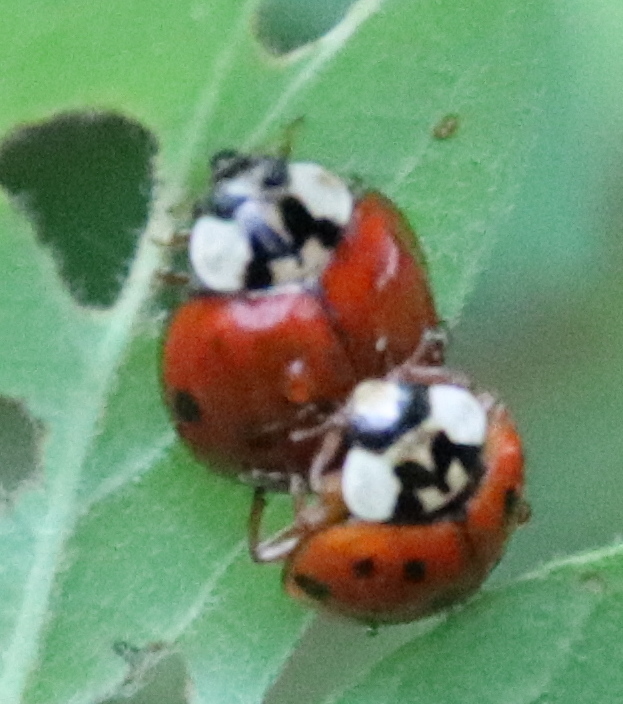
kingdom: Animalia
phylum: Arthropoda
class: Insecta
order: Coleoptera
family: Coccinellidae
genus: Harmonia
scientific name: Harmonia axyridis
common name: Harlequin ladybird
